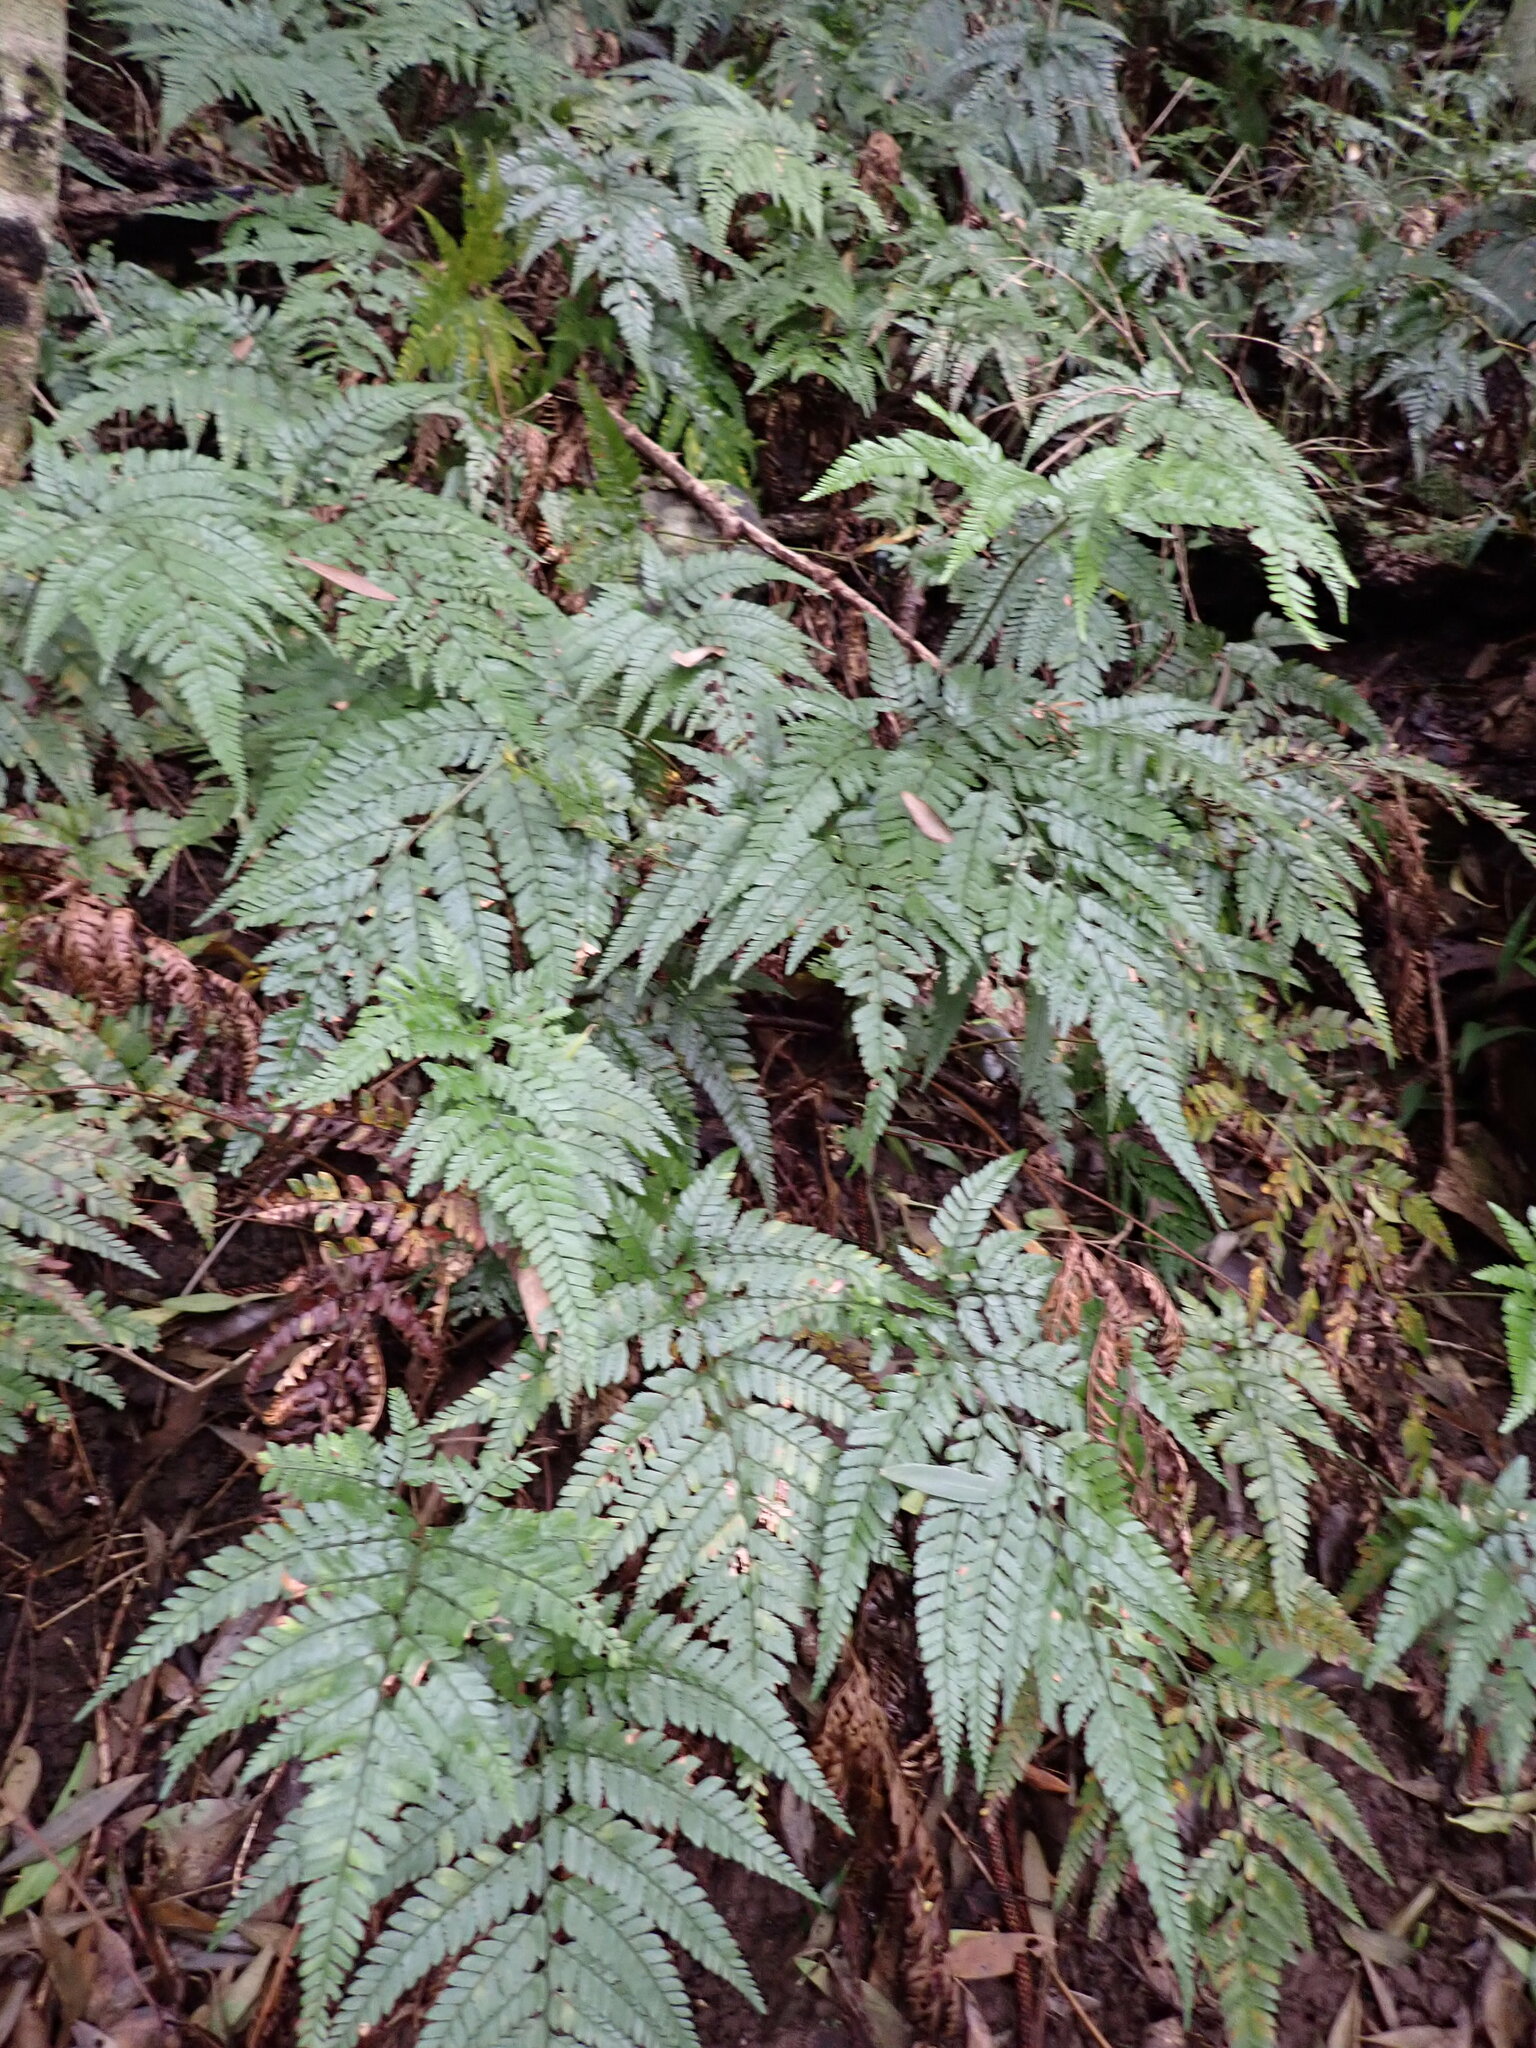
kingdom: Plantae
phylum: Tracheophyta
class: Polypodiopsida
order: Polypodiales
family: Dryopteridaceae
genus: Arachniodes
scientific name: Arachniodes aristata
